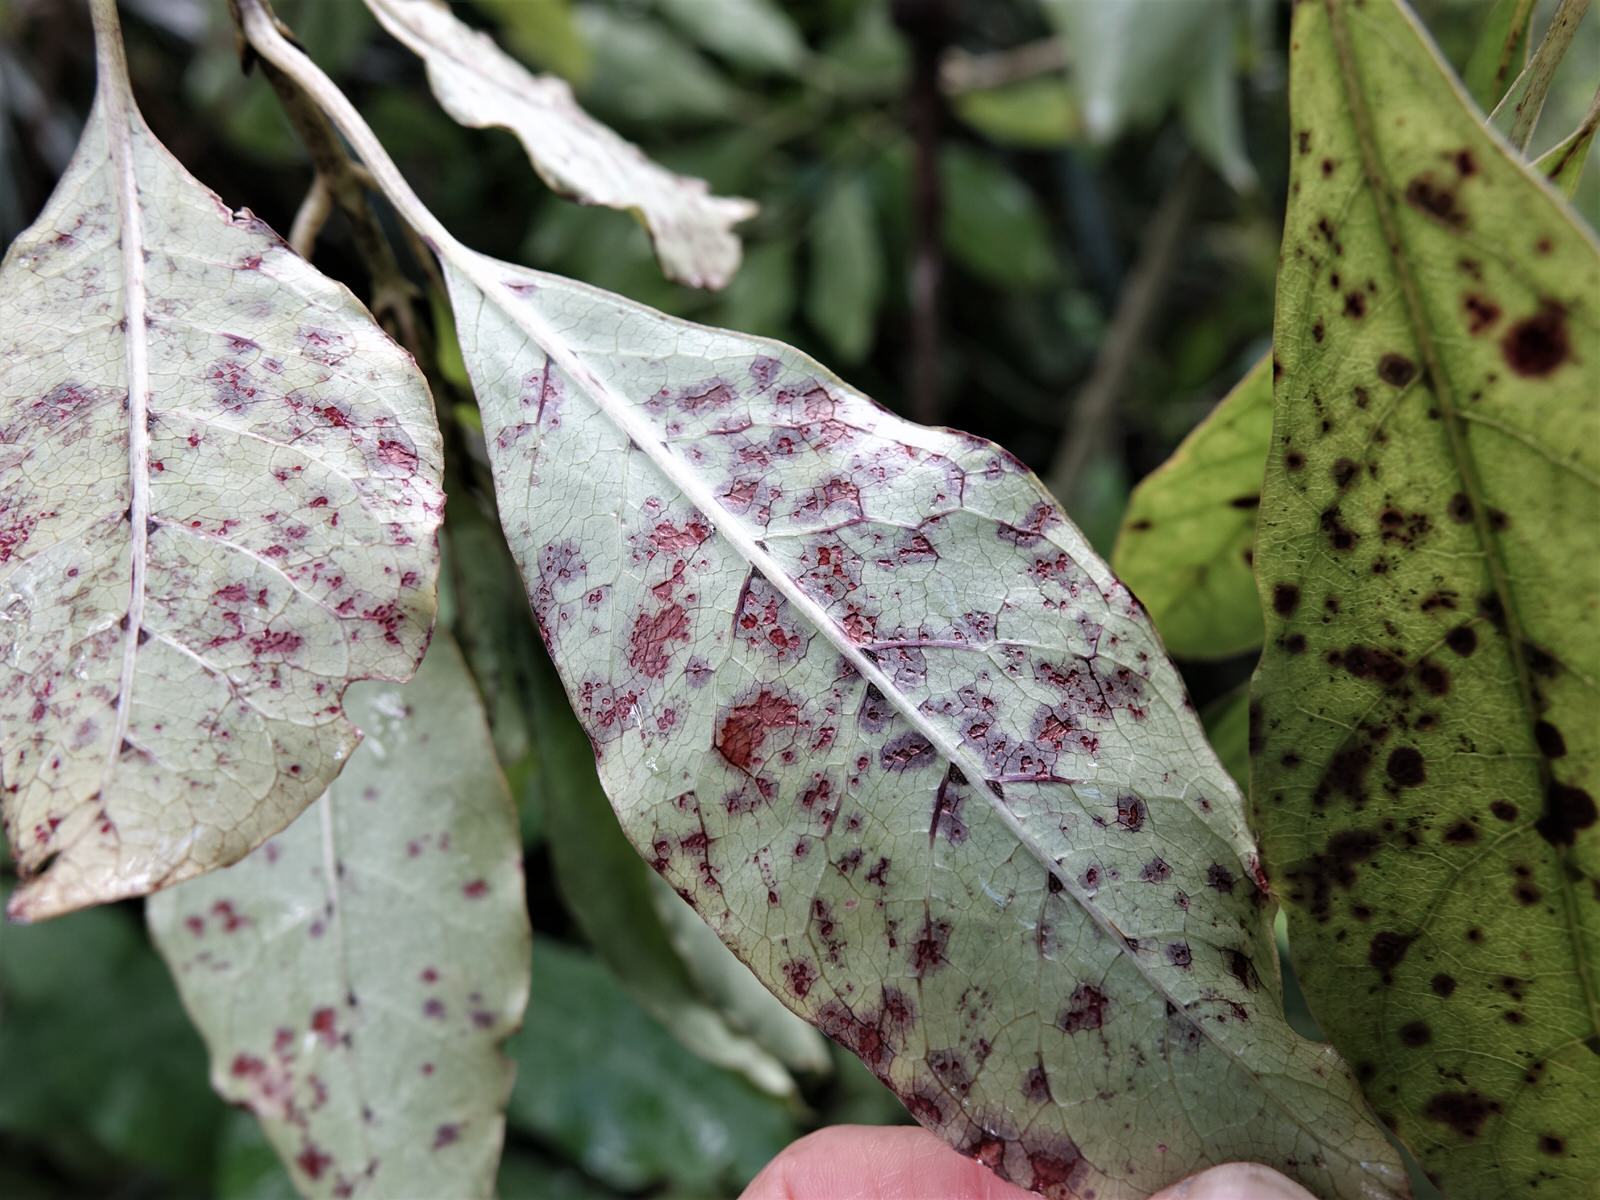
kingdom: Plantae
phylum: Tracheophyta
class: Magnoliopsida
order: Gentianales
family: Rubiaceae
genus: Coprosma
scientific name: Coprosma autumnalis
